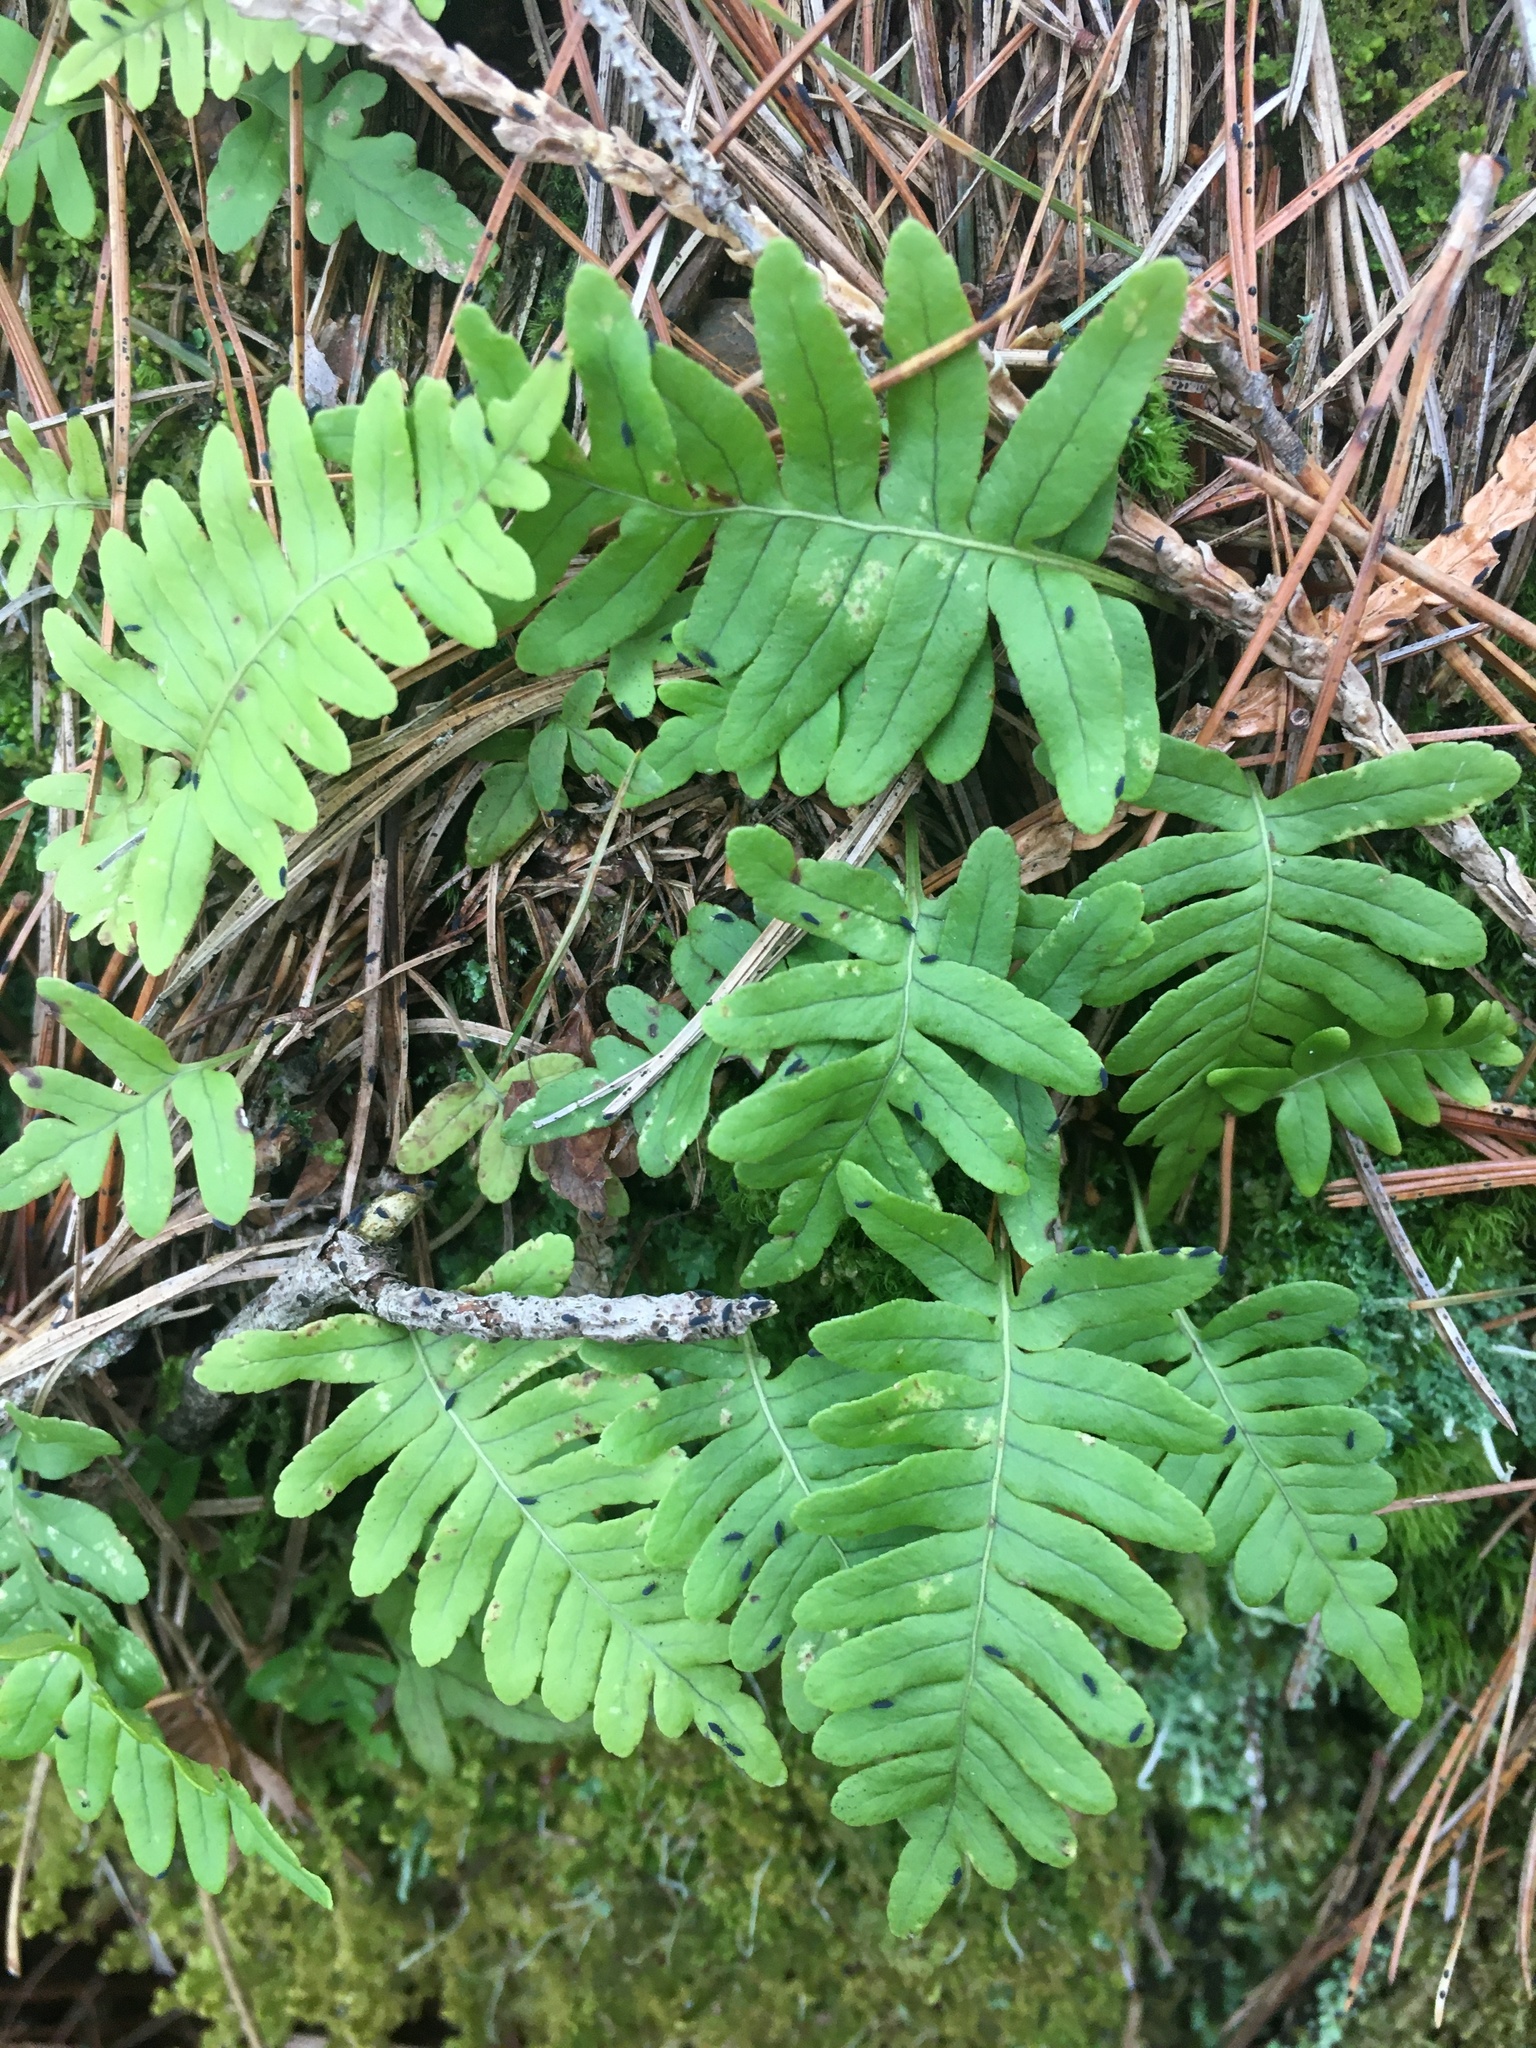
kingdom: Plantae
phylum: Tracheophyta
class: Polypodiopsida
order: Polypodiales
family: Polypodiaceae
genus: Polypodium
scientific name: Polypodium virginianum
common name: American wall fern
